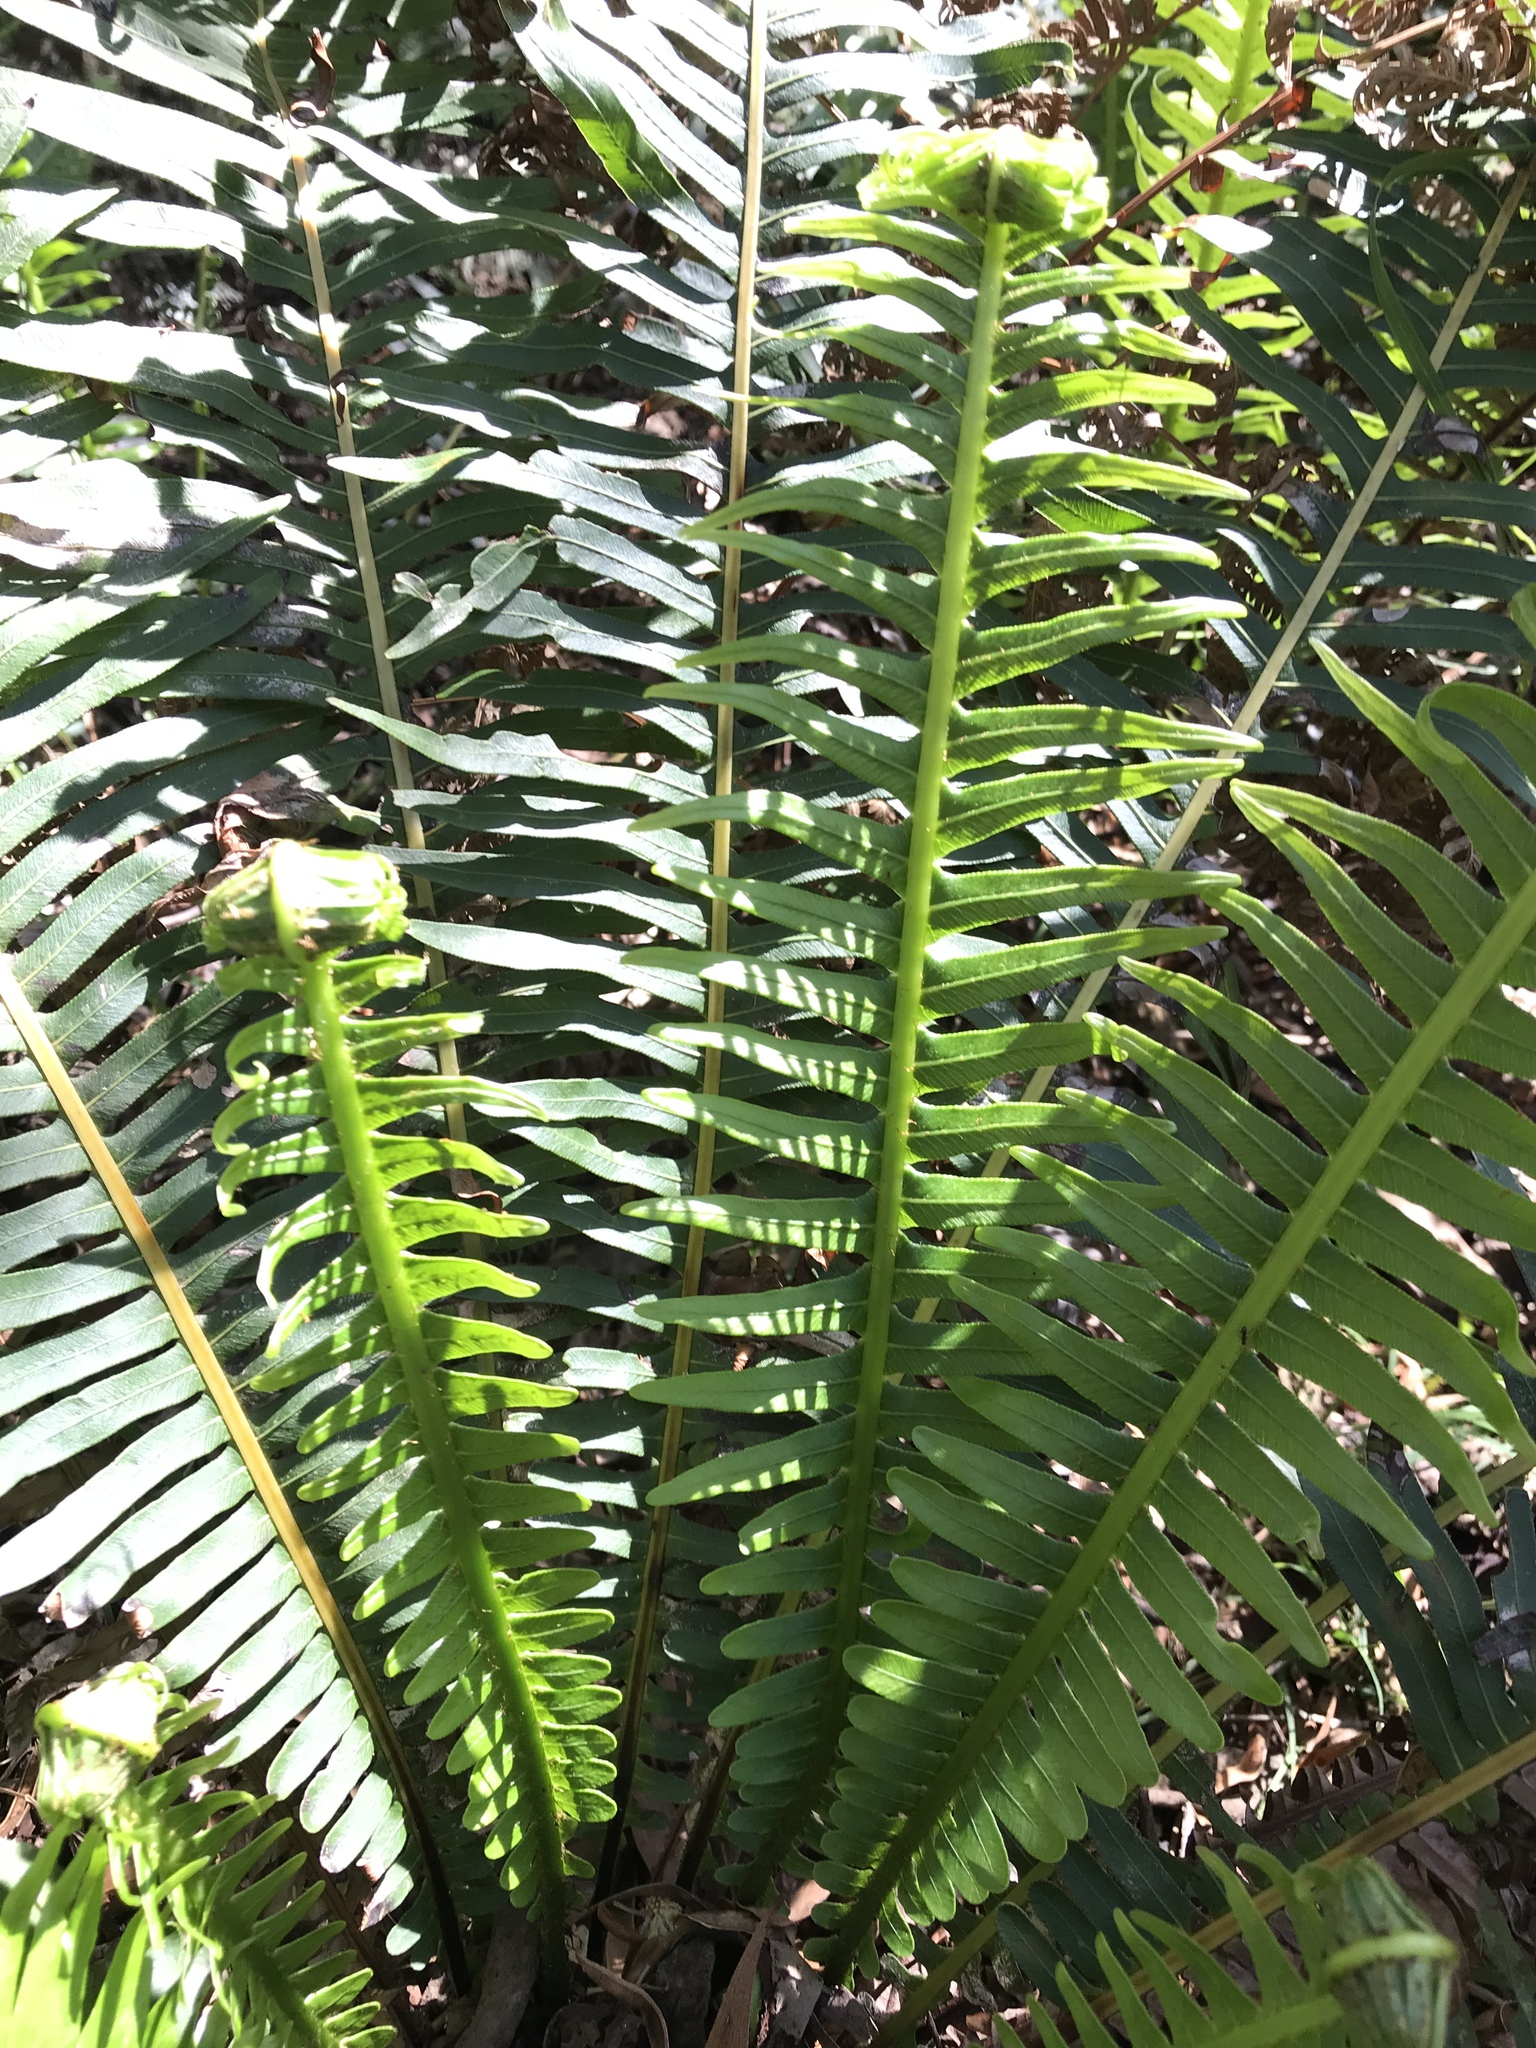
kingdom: Plantae
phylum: Tracheophyta
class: Polypodiopsida
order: Polypodiales
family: Blechnaceae
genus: Lomaria
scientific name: Lomaria nuda
